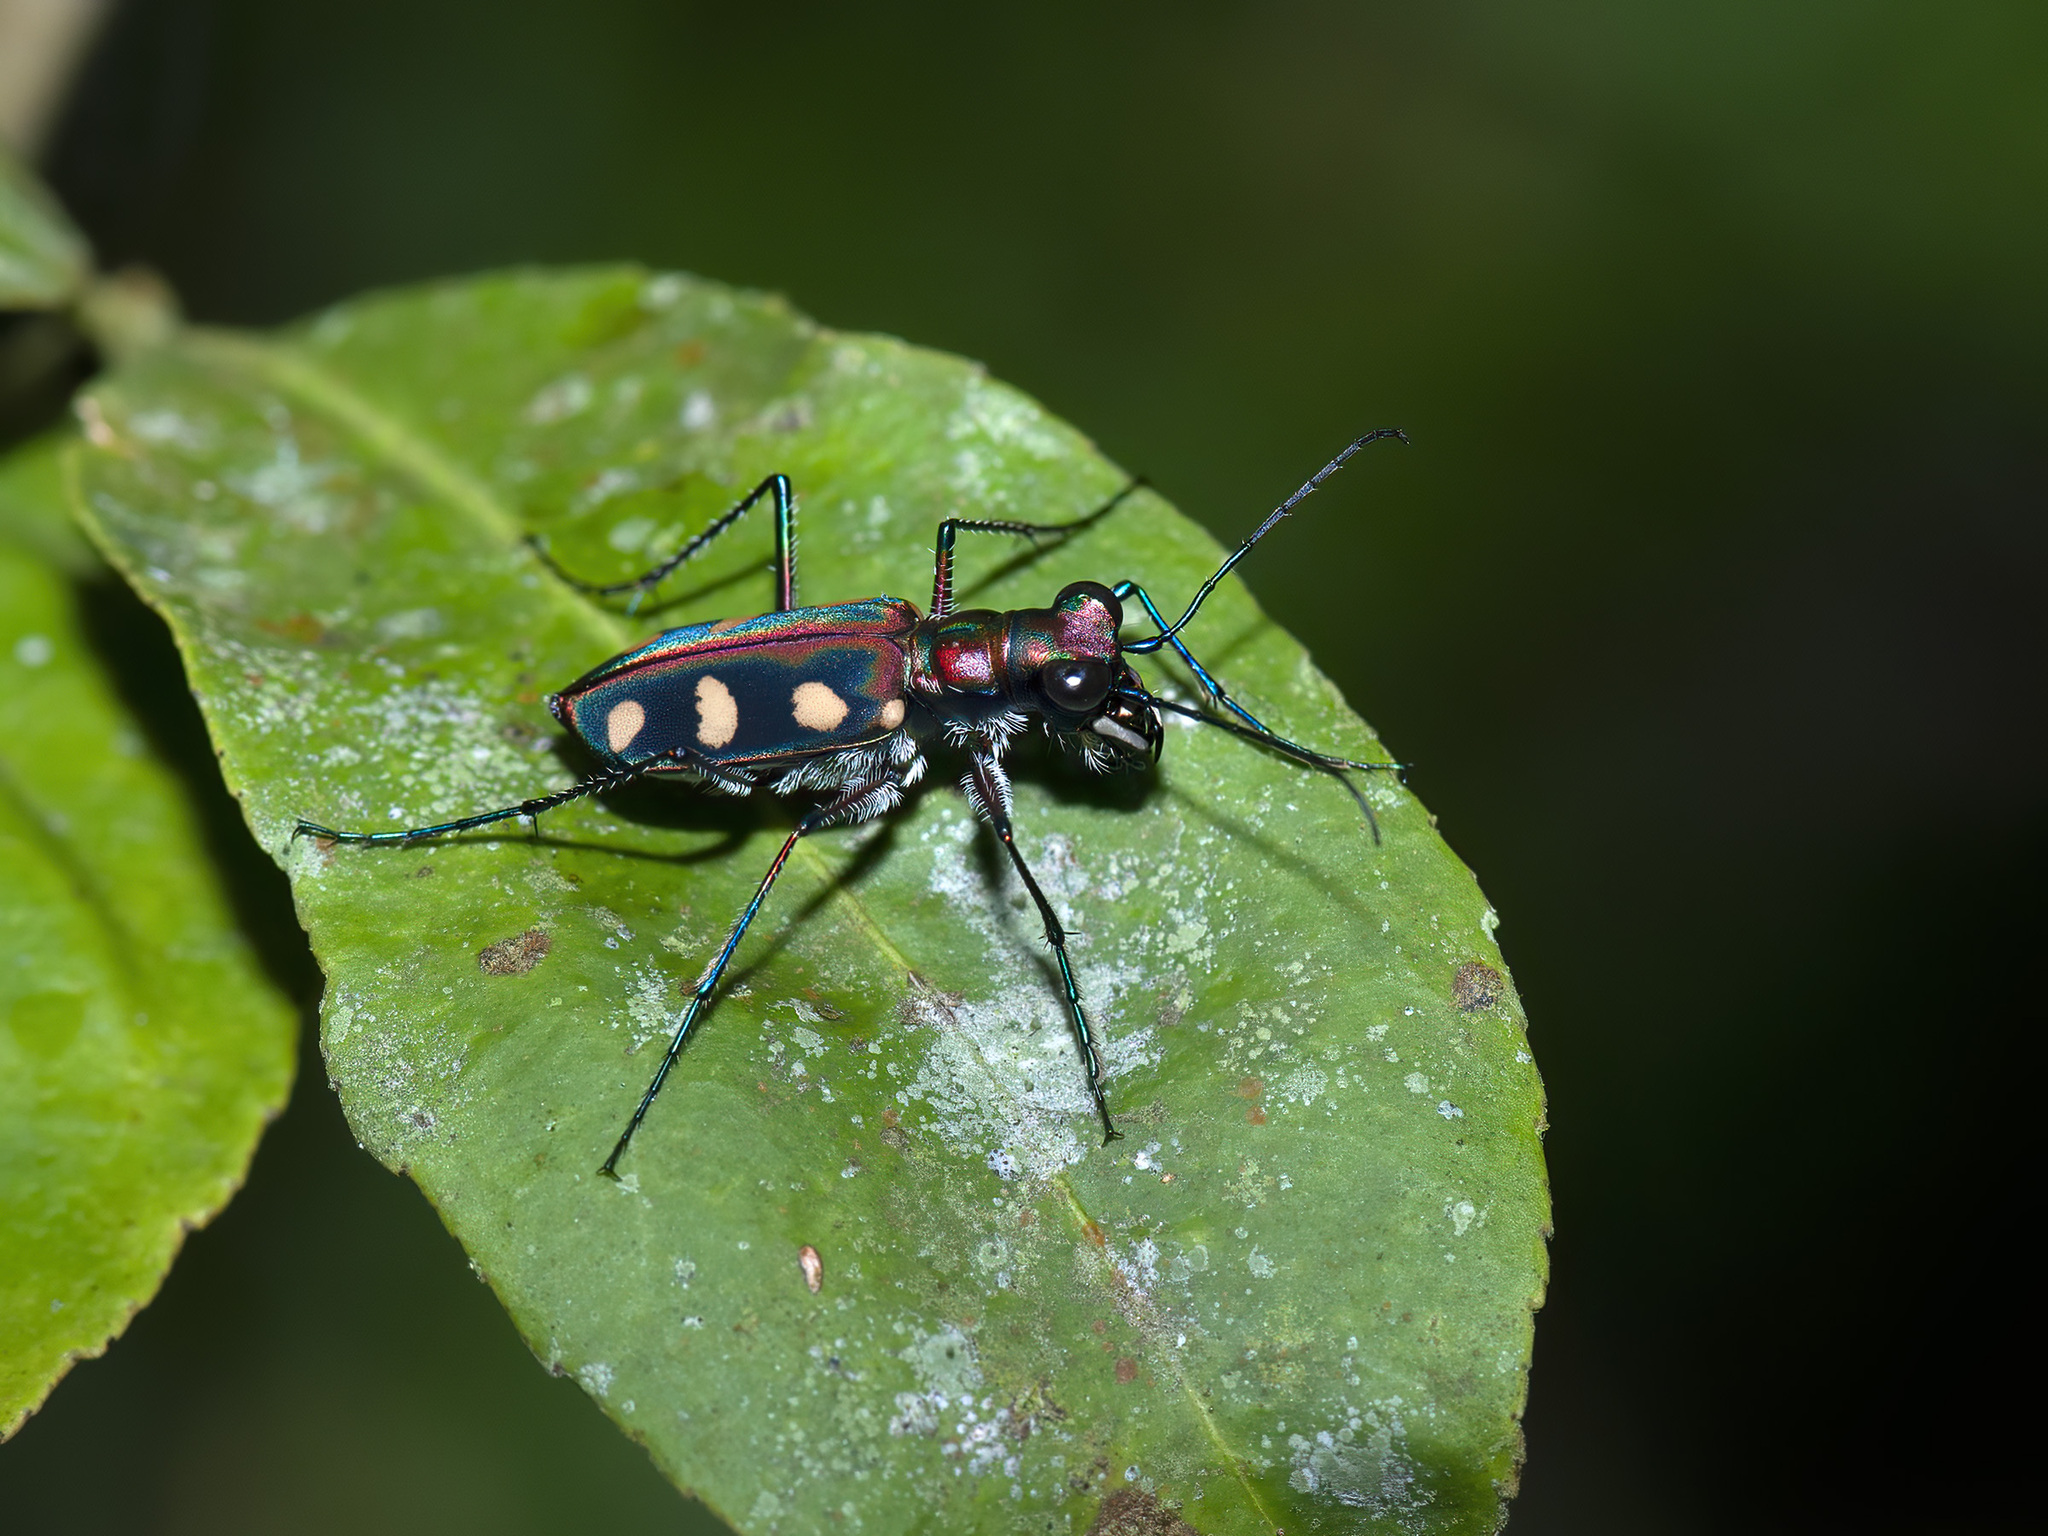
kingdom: Animalia
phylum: Arthropoda
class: Insecta
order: Coleoptera
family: Carabidae
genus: Cicindela
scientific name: Cicindela aurulenta
